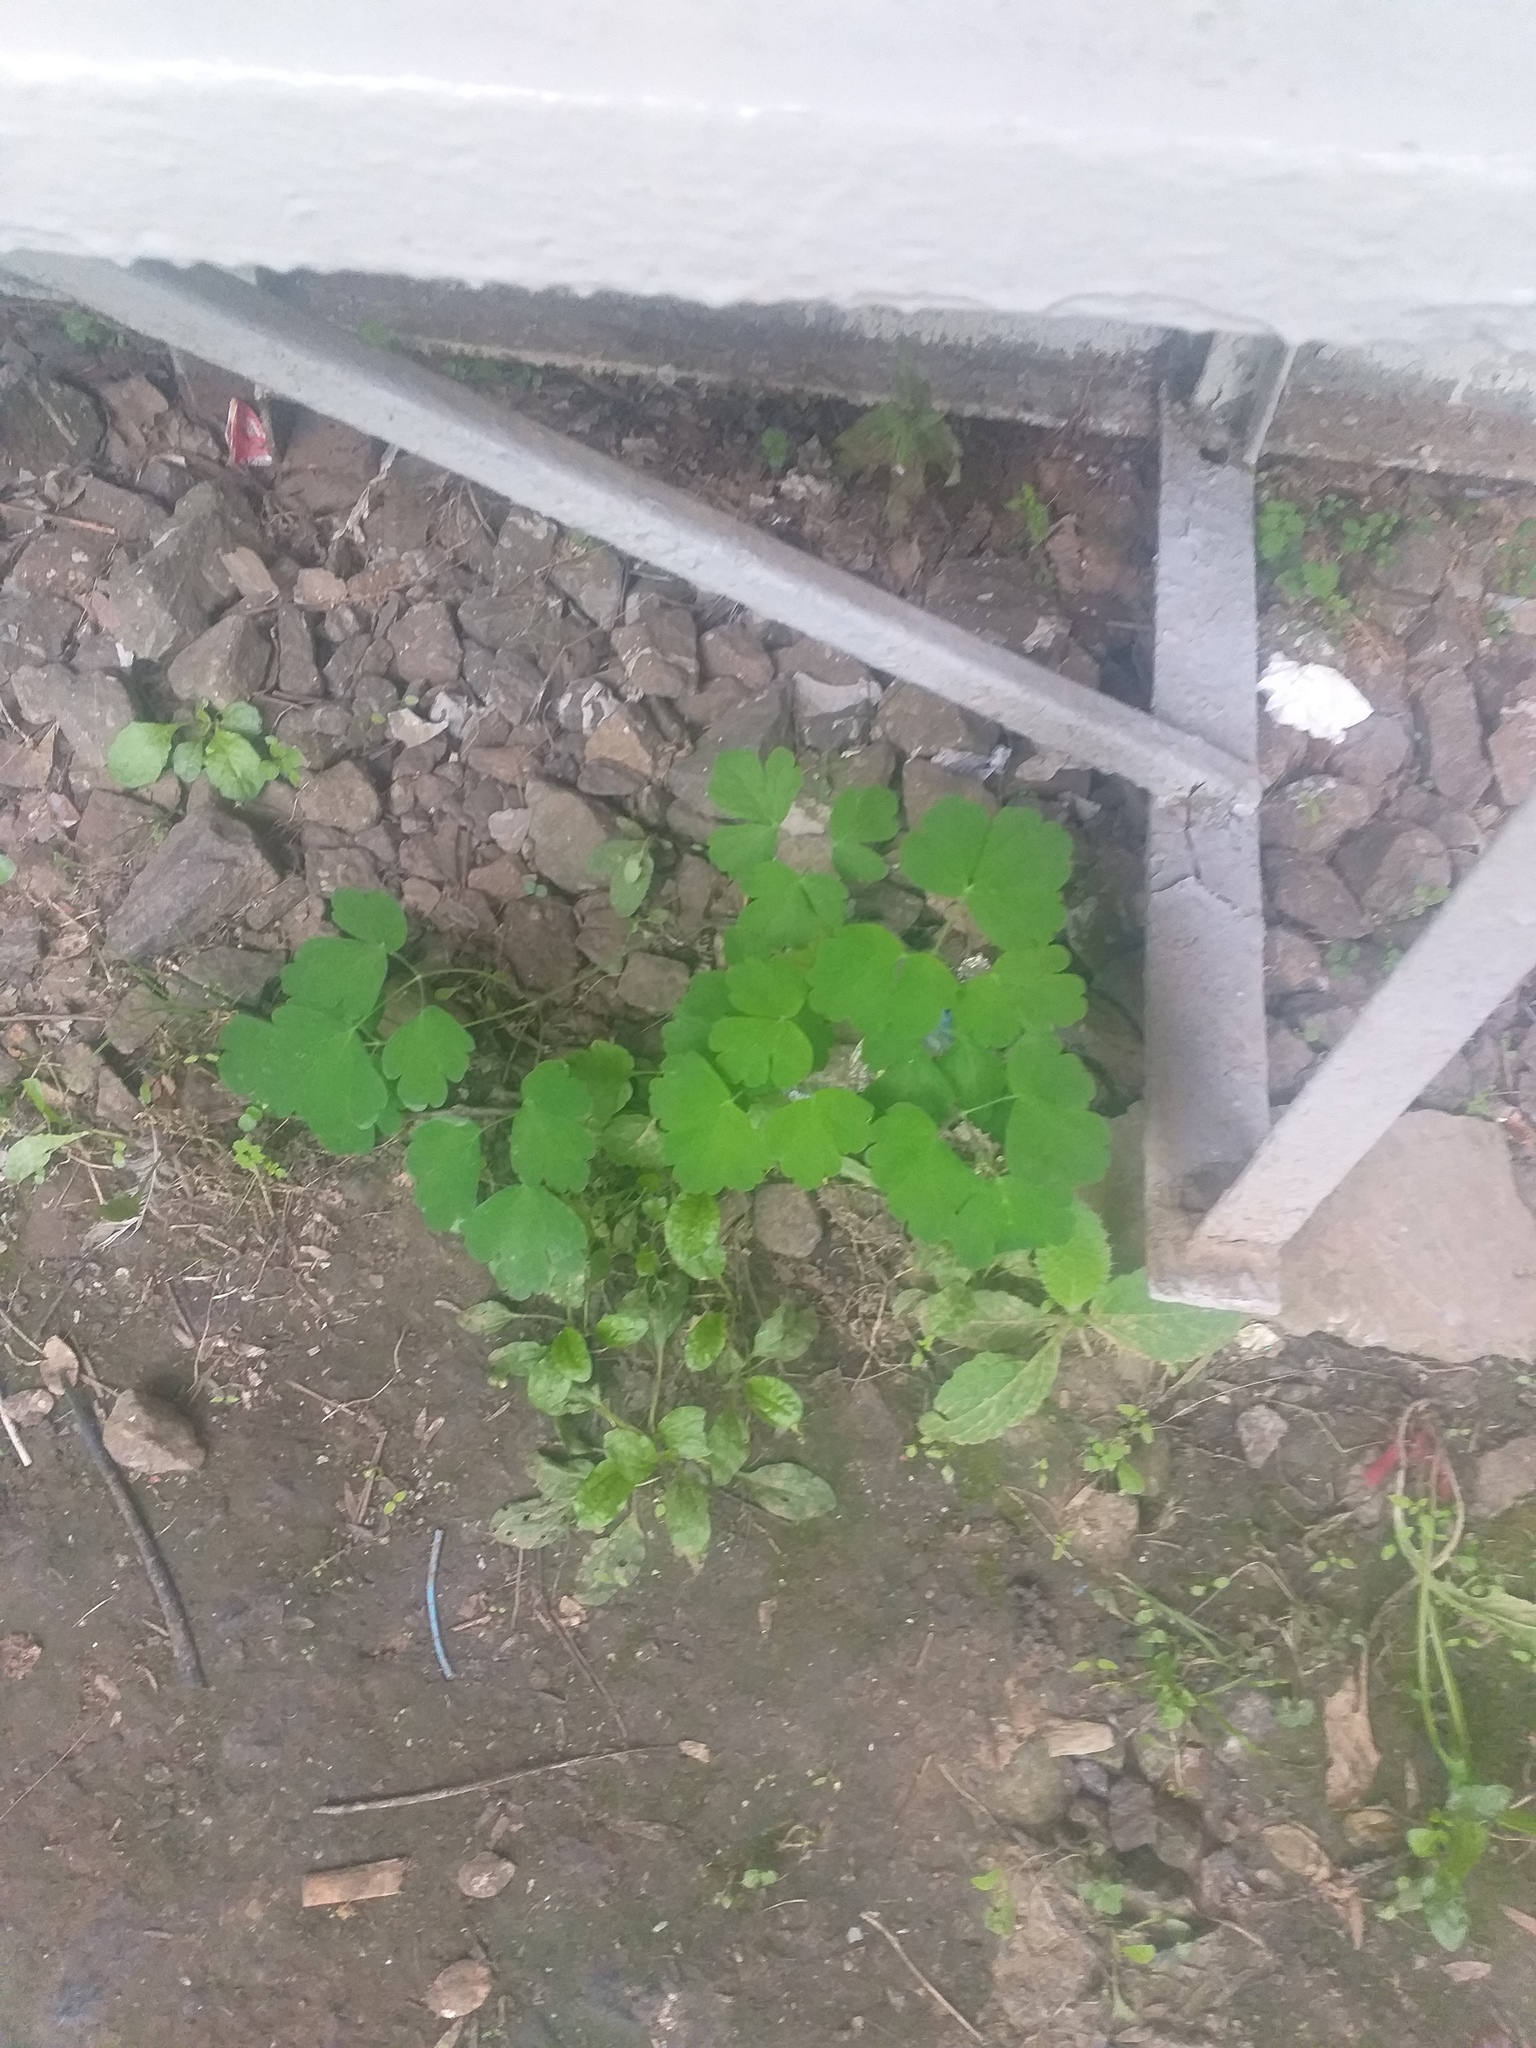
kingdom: Plantae
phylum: Tracheophyta
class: Magnoliopsida
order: Ranunculales
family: Ranunculaceae
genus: Aquilegia
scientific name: Aquilegia vulgaris
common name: Columbine
